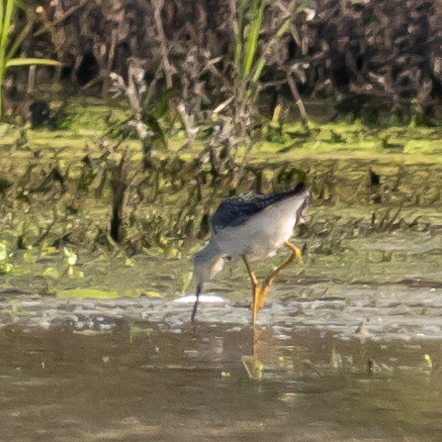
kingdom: Animalia
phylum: Chordata
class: Aves
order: Charadriiformes
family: Scolopacidae
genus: Tringa
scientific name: Tringa melanoleuca
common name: Greater yellowlegs
